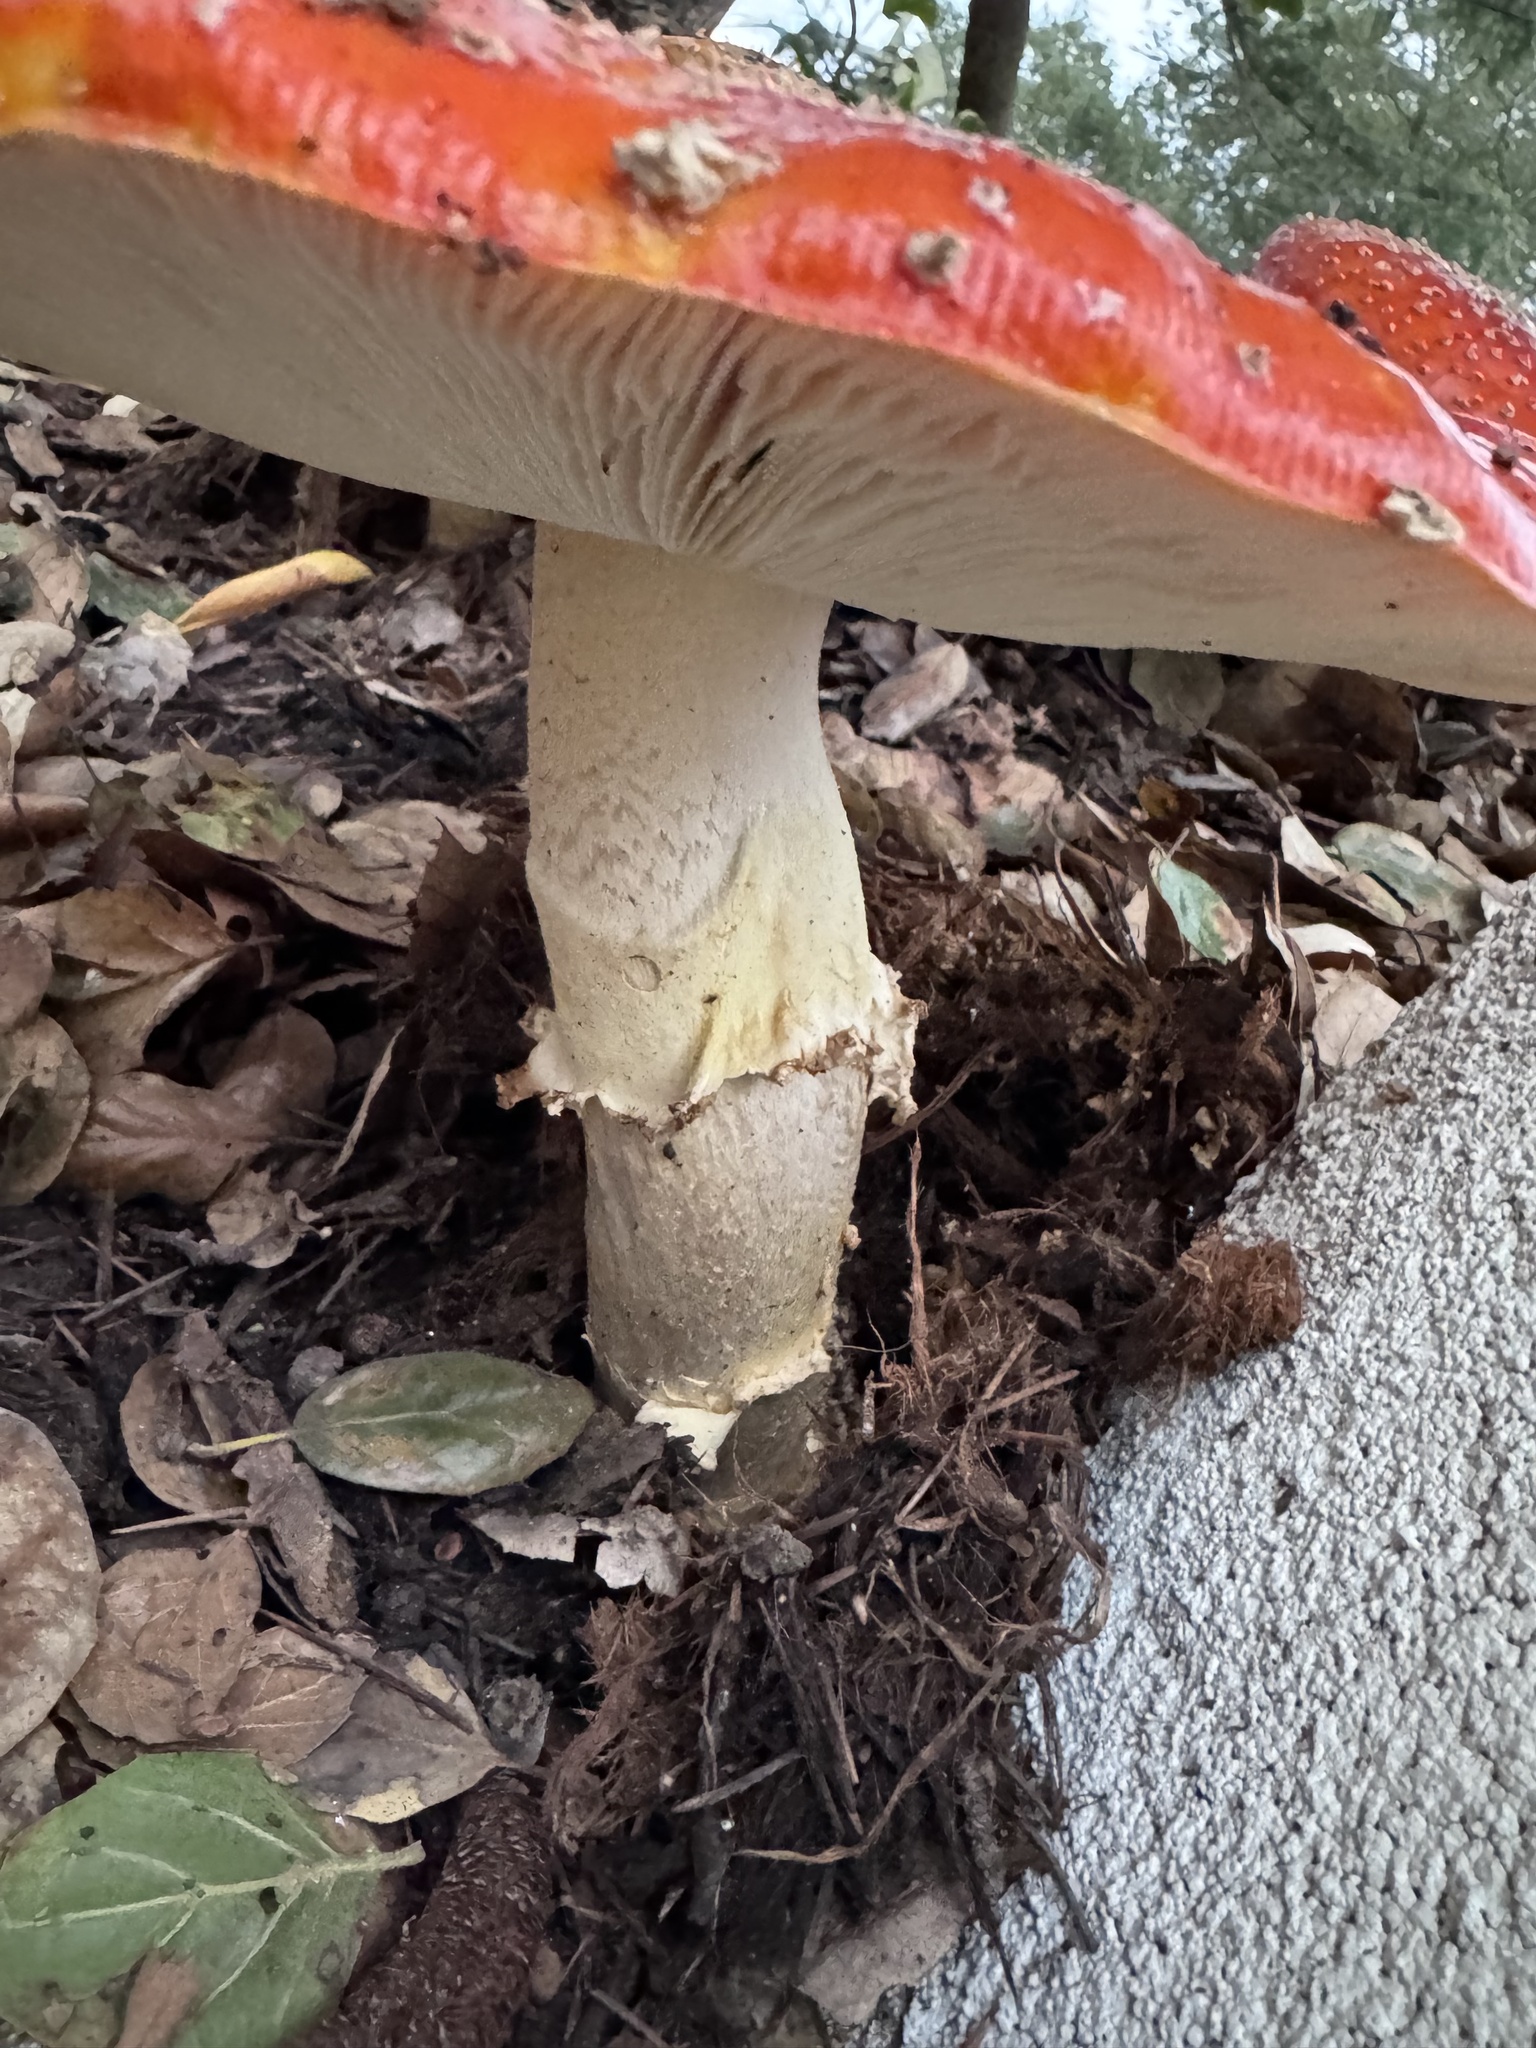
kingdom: Fungi
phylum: Basidiomycota
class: Agaricomycetes
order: Agaricales
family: Amanitaceae
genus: Amanita
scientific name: Amanita muscaria
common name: Fly agaric
